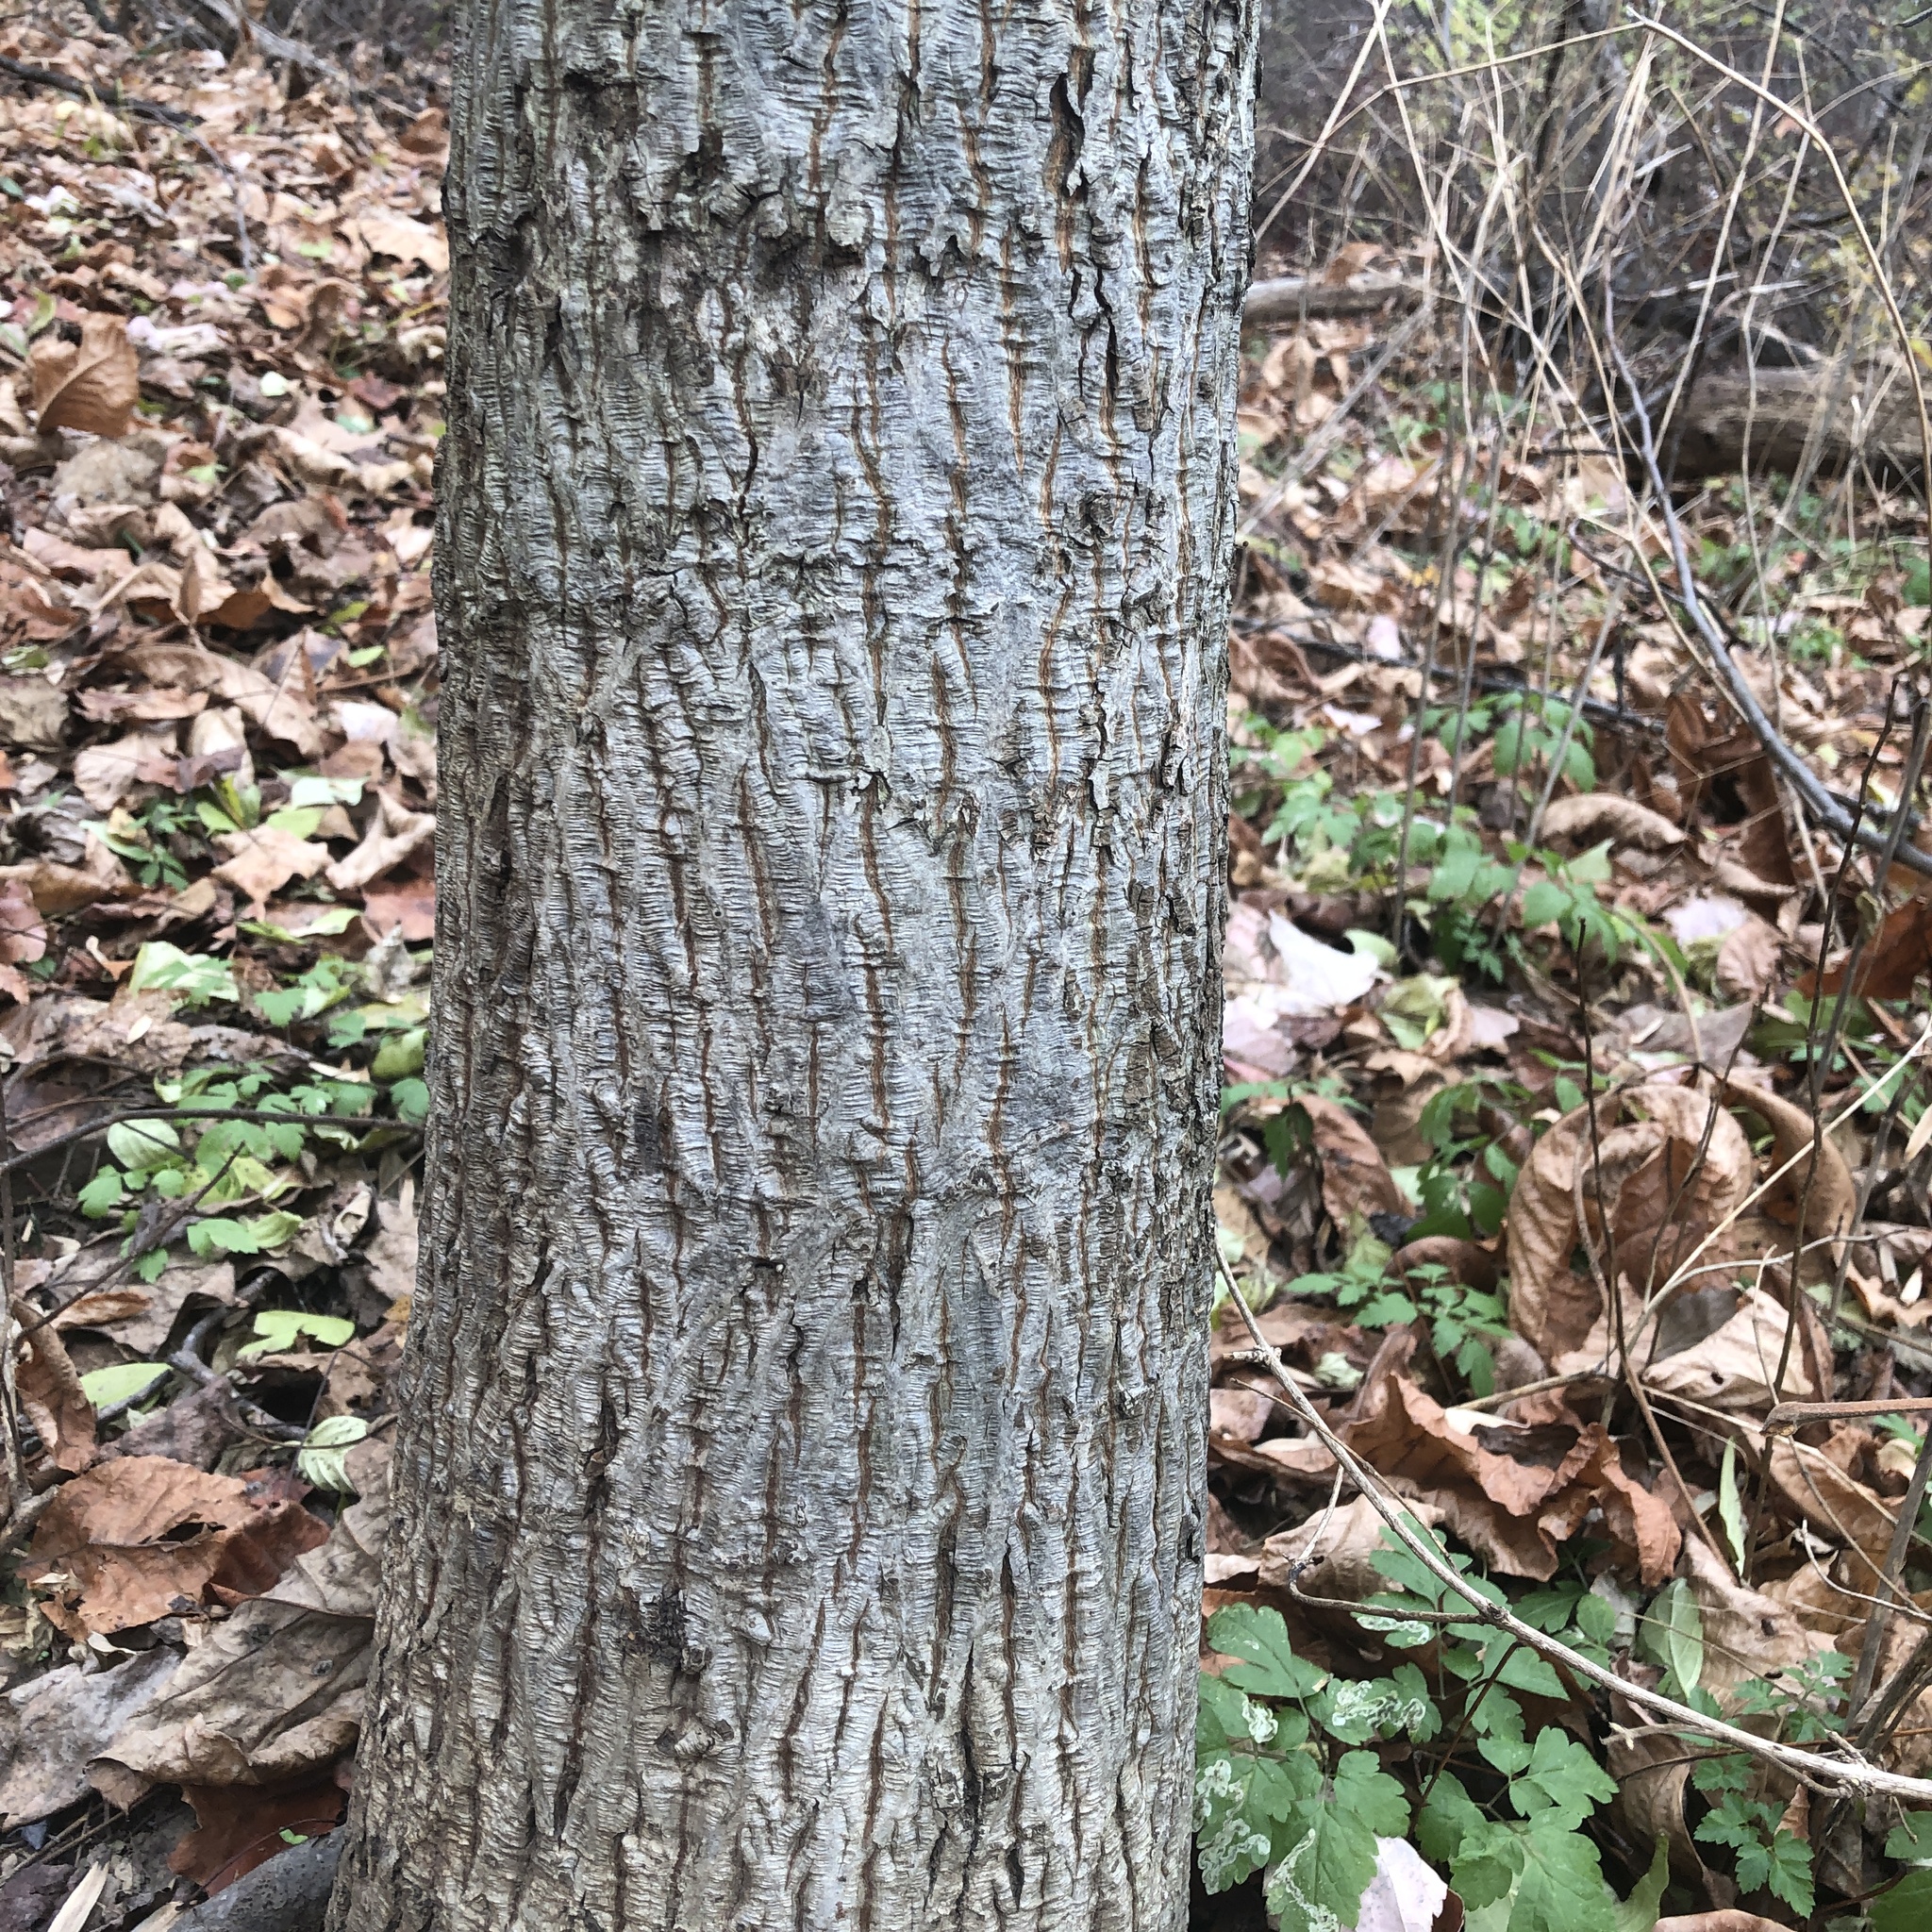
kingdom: Plantae
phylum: Tracheophyta
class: Magnoliopsida
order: Fagales
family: Juglandaceae
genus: Carya
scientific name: Carya alba
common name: Mockernut hickory
